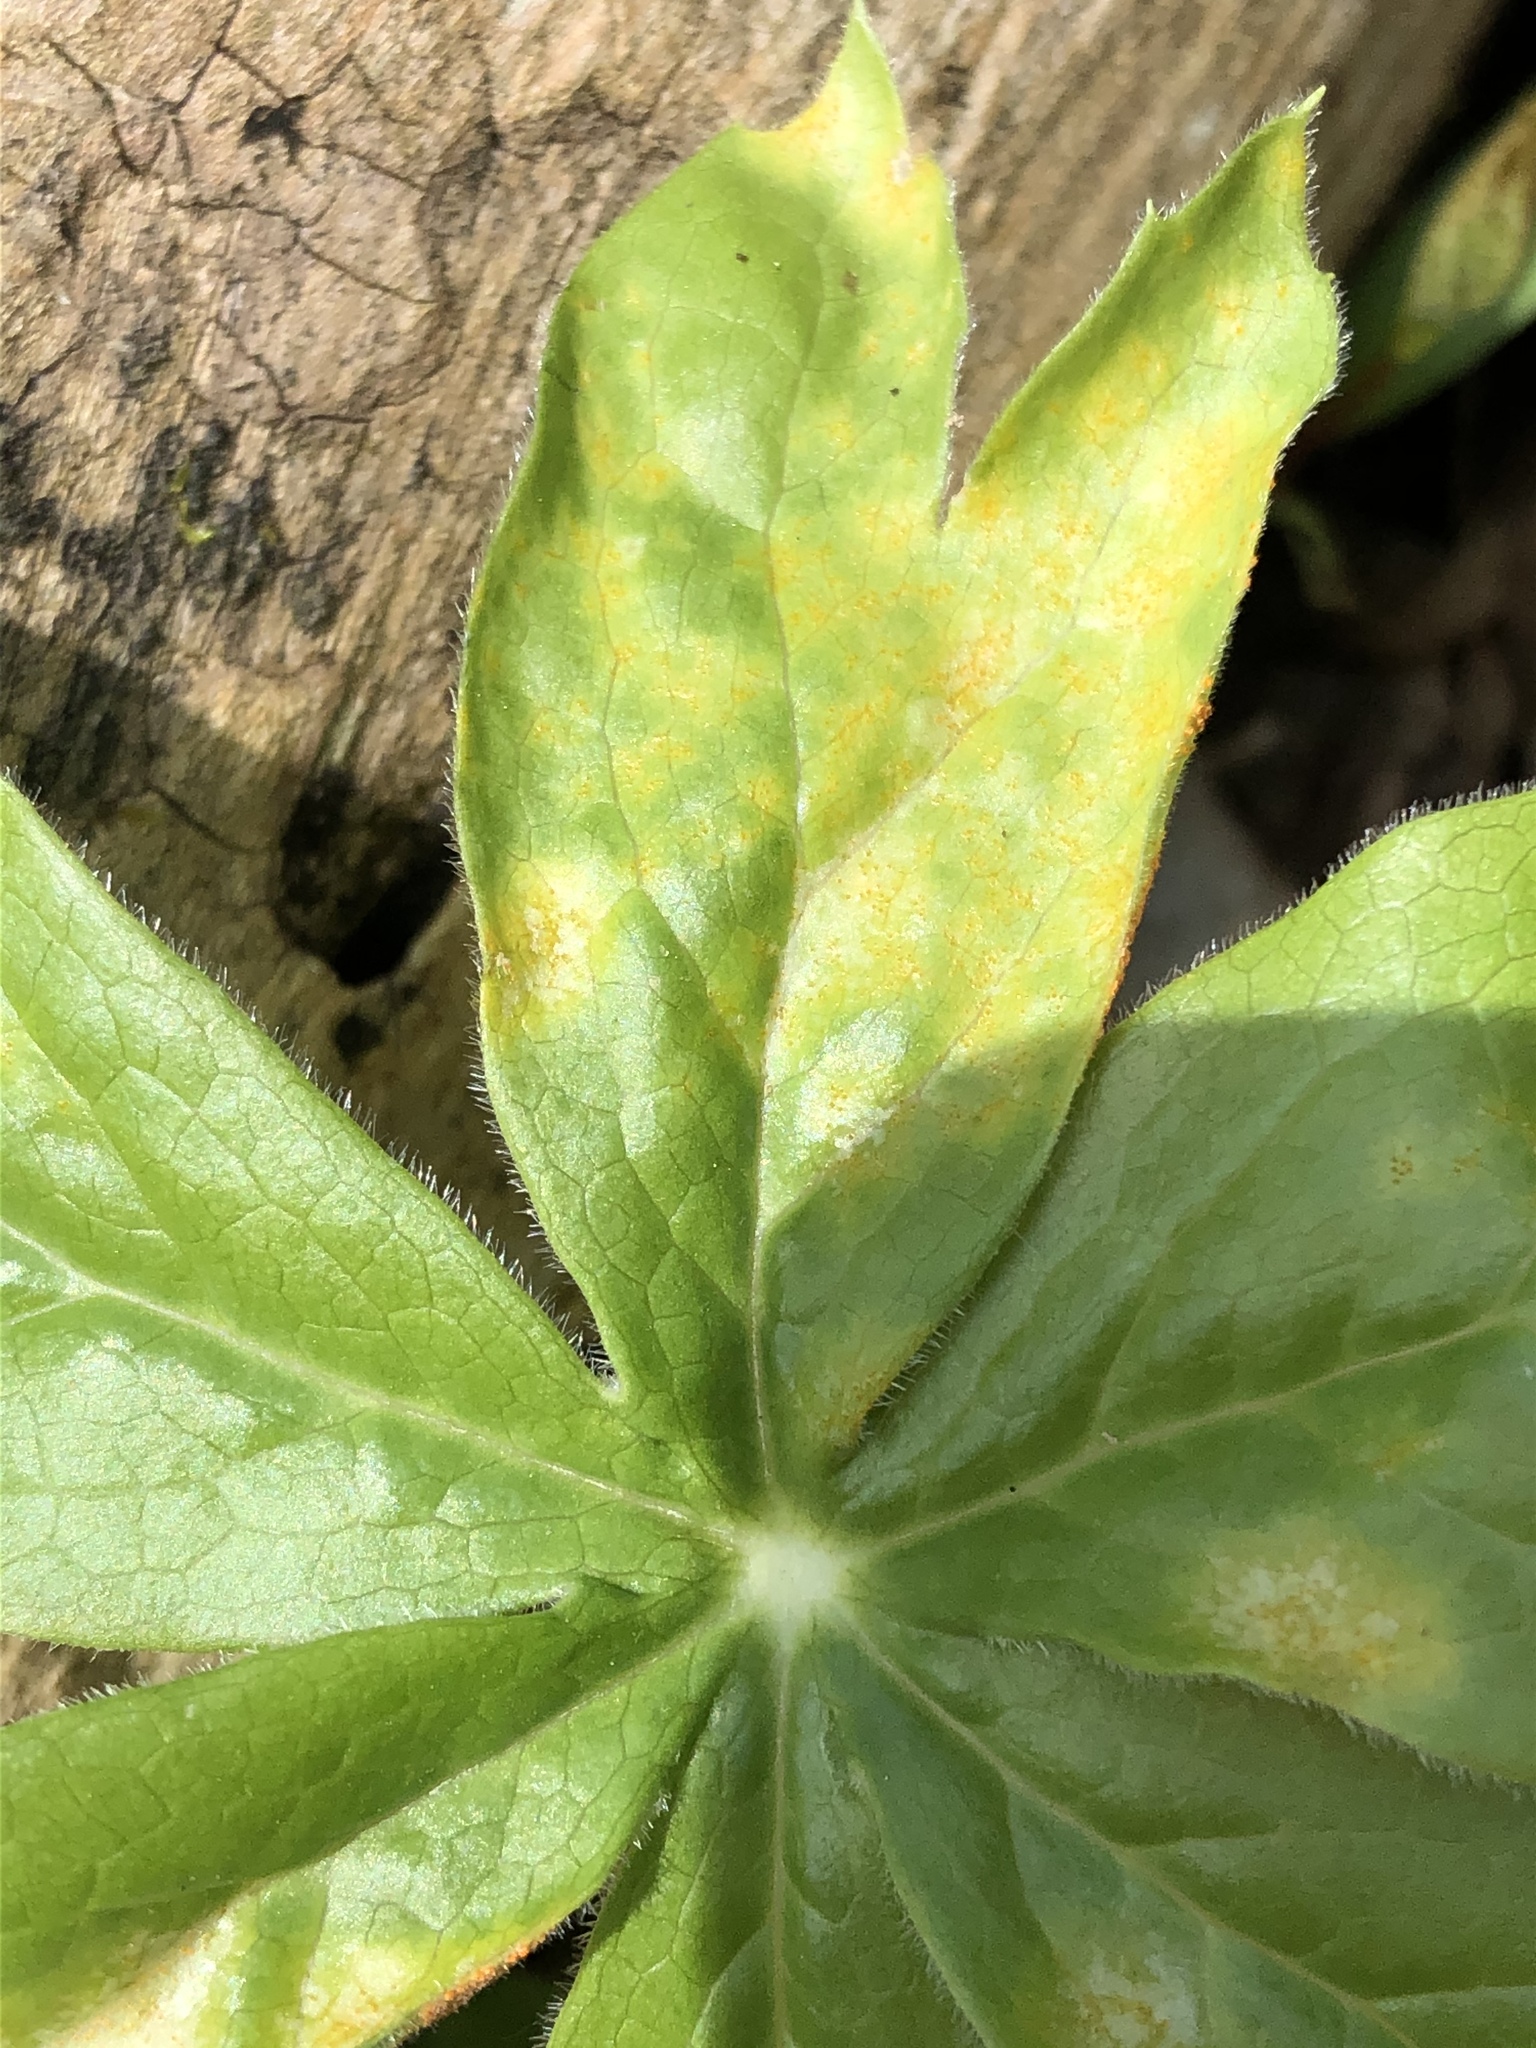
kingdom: Fungi
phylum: Basidiomycota
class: Pucciniomycetes
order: Pucciniales
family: Pucciniaceae
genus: Puccinia
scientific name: Puccinia podophylli
